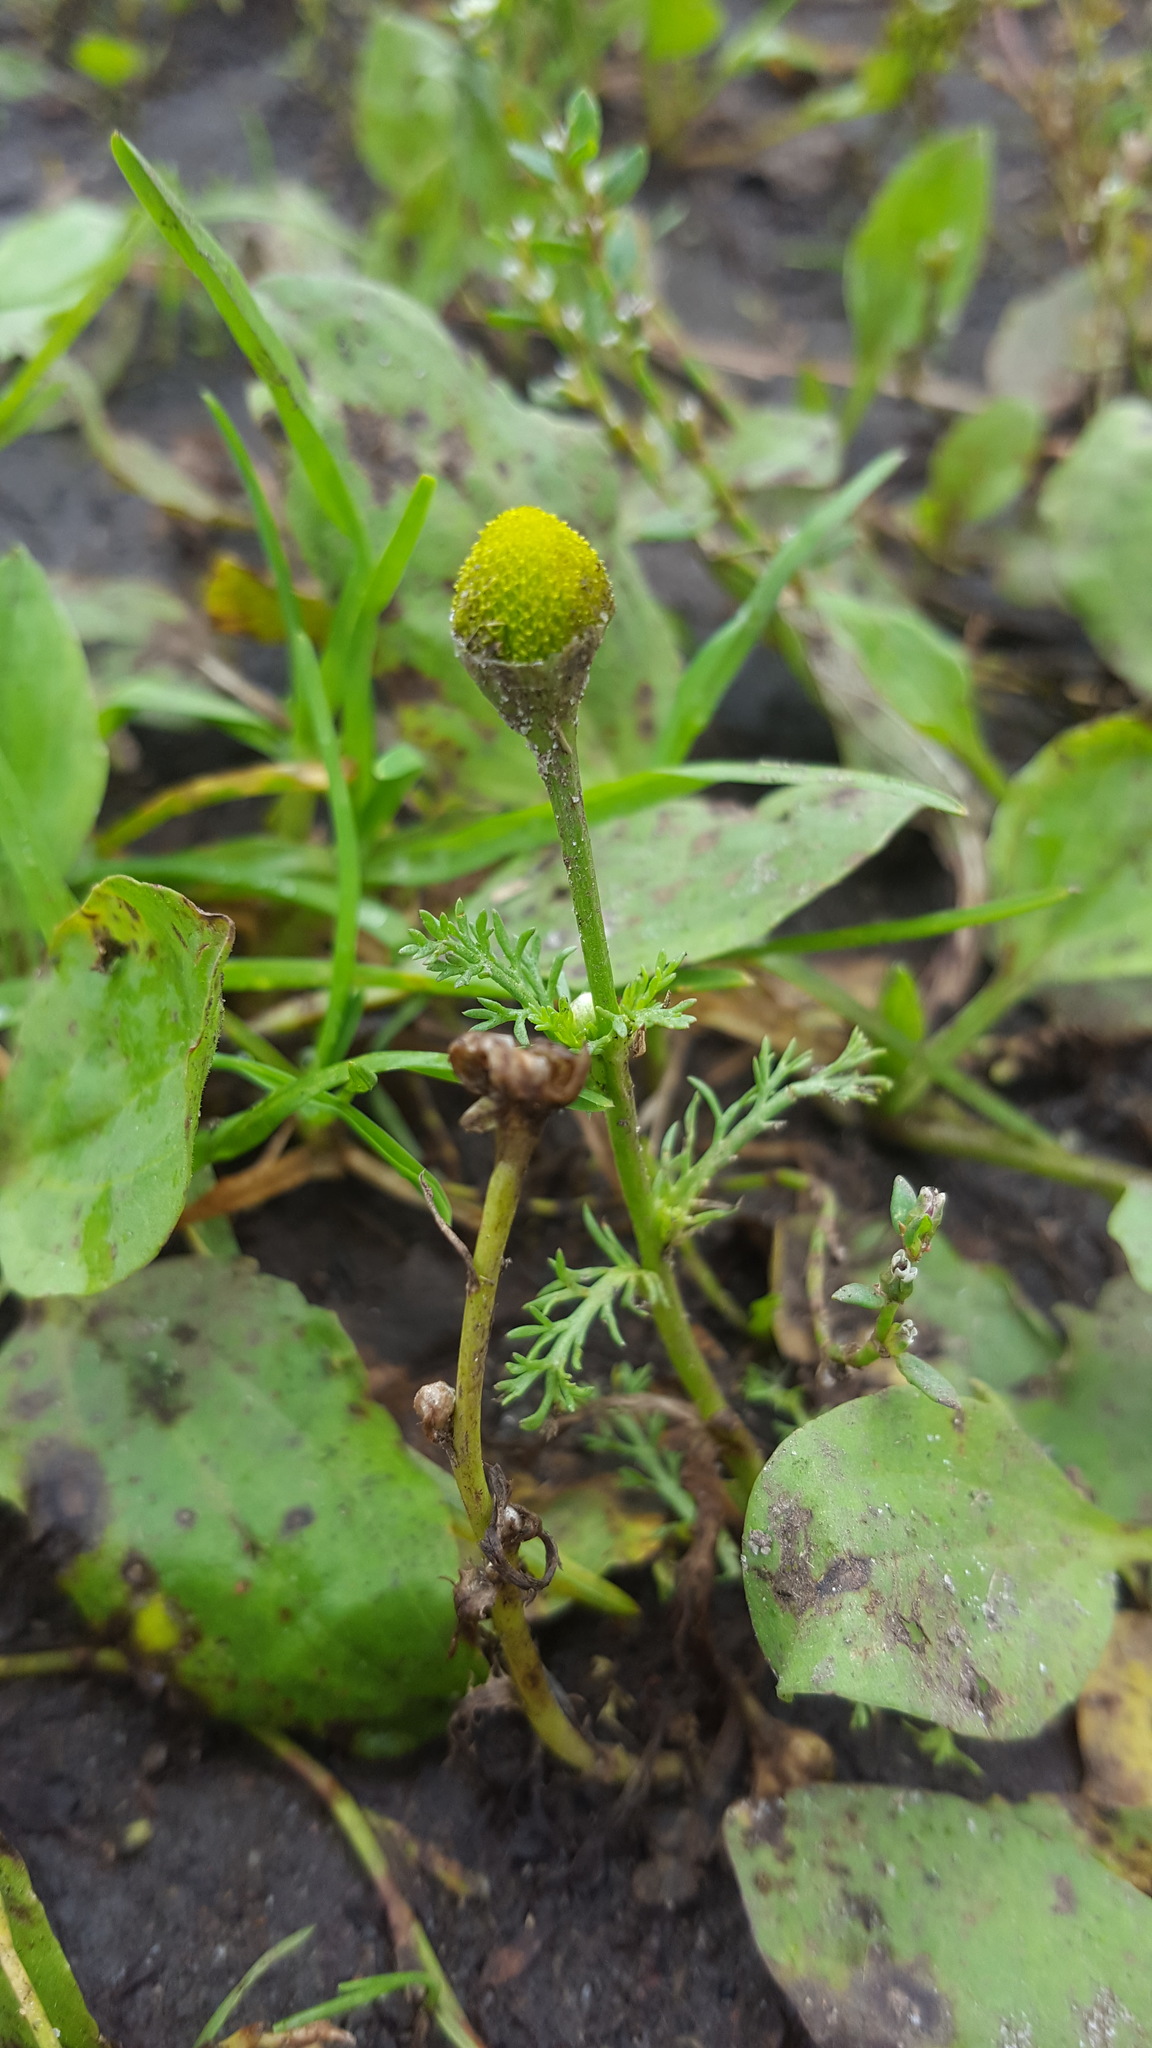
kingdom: Plantae
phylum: Tracheophyta
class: Magnoliopsida
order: Asterales
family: Asteraceae
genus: Matricaria
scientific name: Matricaria discoidea
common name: Disc mayweed
